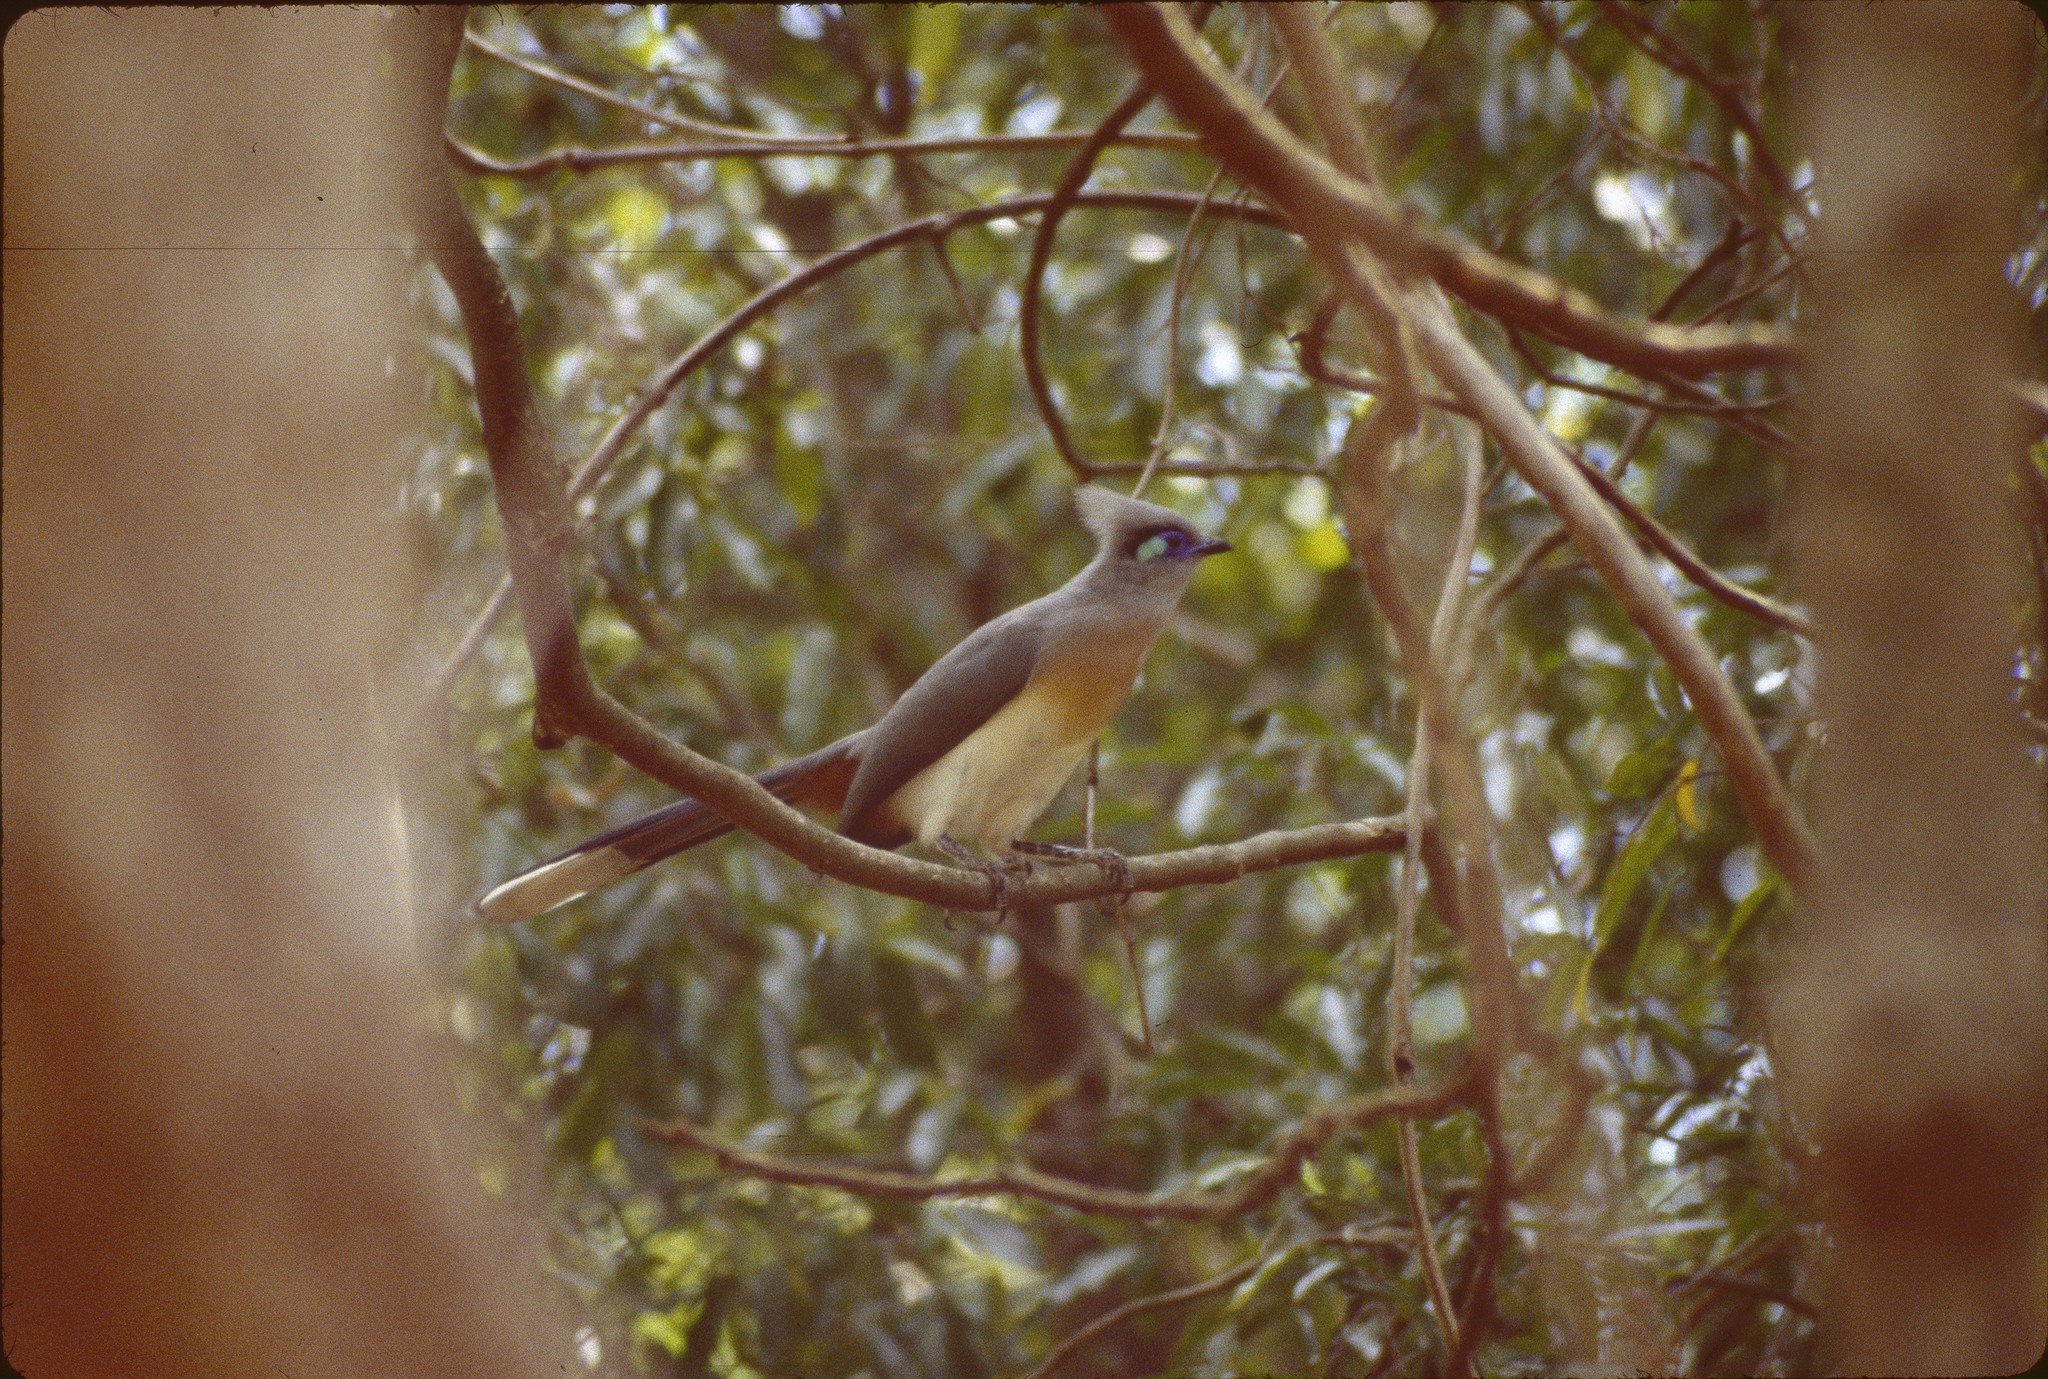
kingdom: Animalia
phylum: Chordata
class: Aves
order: Cuculiformes
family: Cuculidae
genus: Coua
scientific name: Coua cristata
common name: Crested coua
